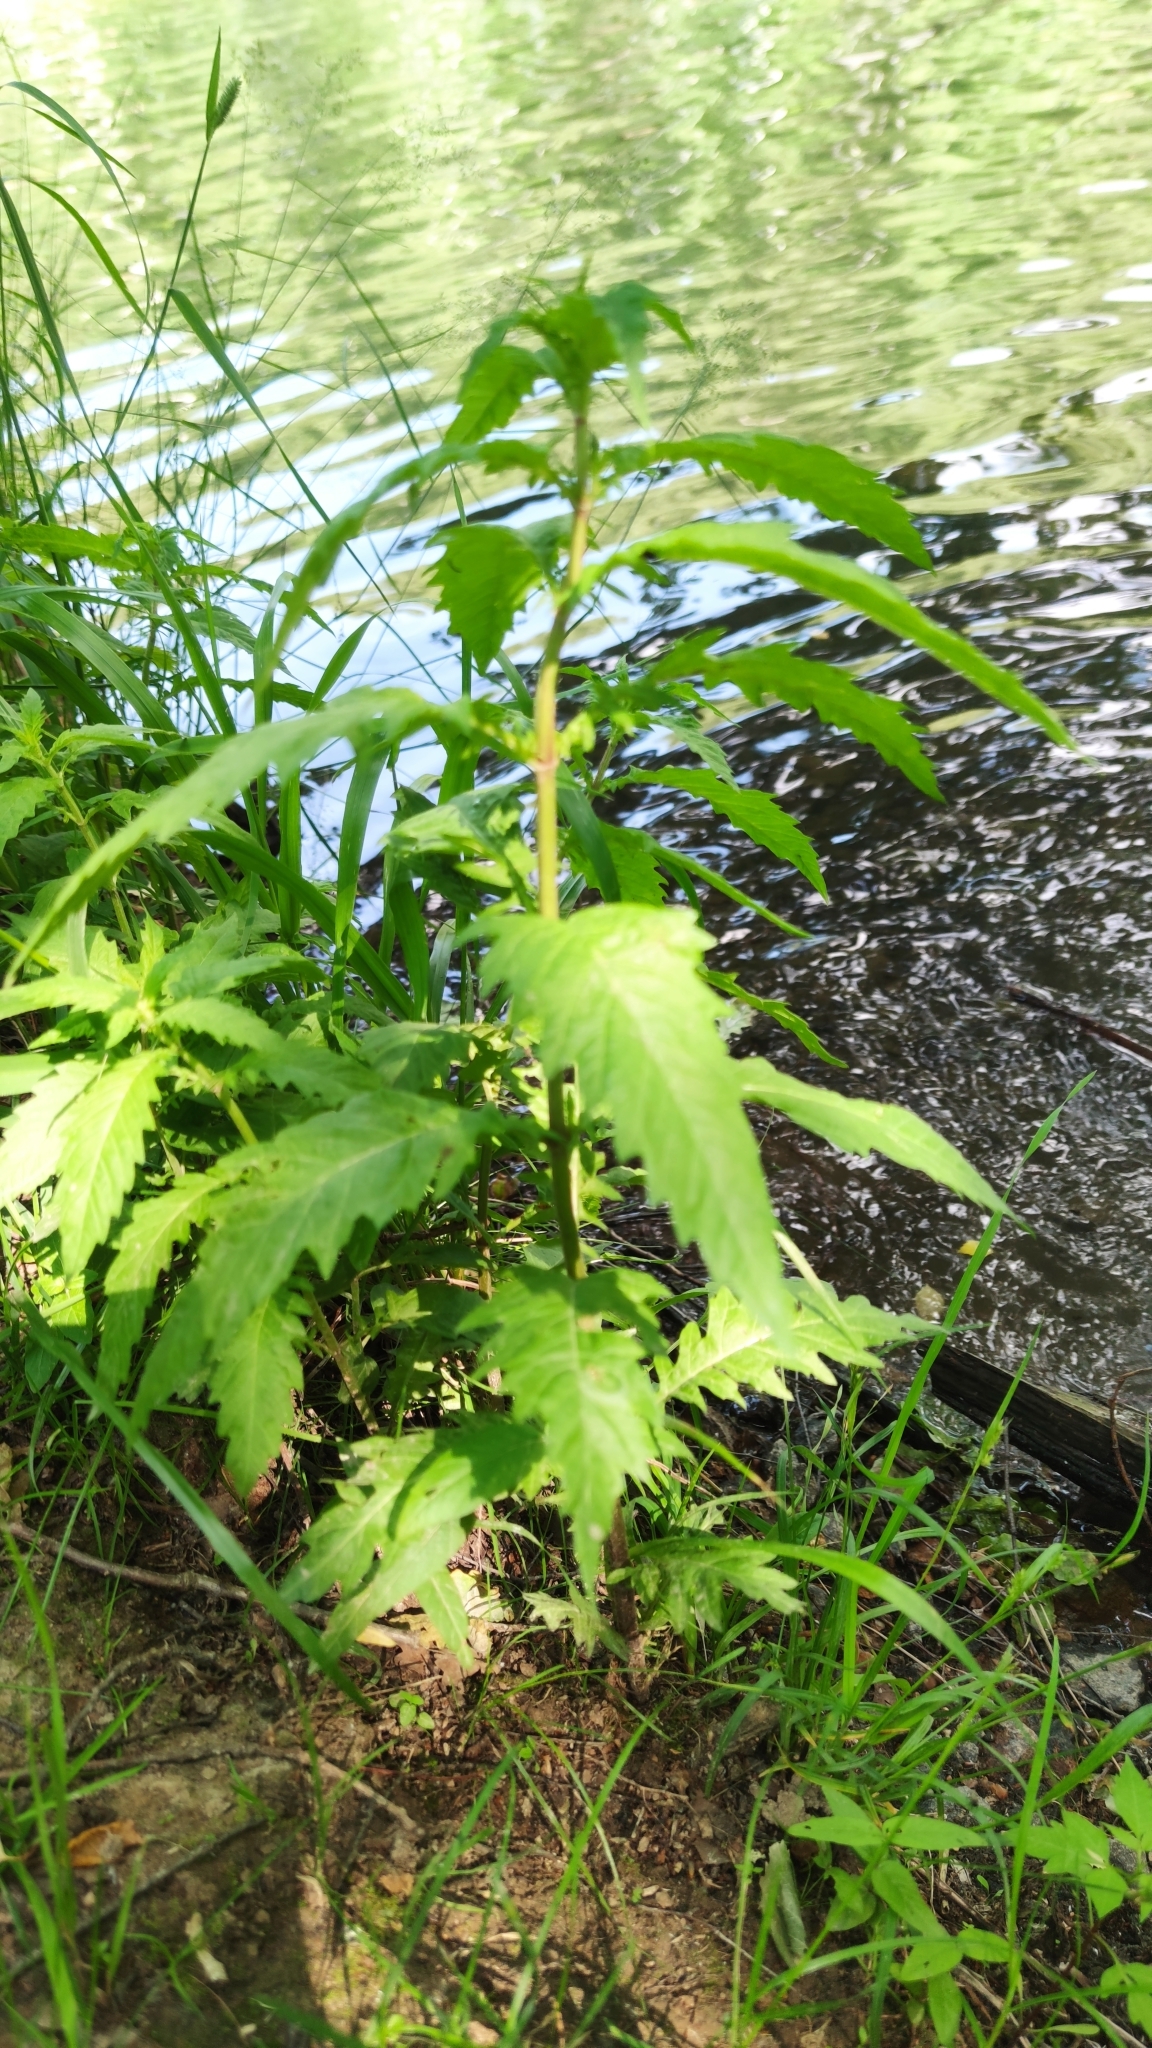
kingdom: Plantae
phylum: Tracheophyta
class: Magnoliopsida
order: Lamiales
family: Lamiaceae
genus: Lycopus
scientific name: Lycopus europaeus
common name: European bugleweed
